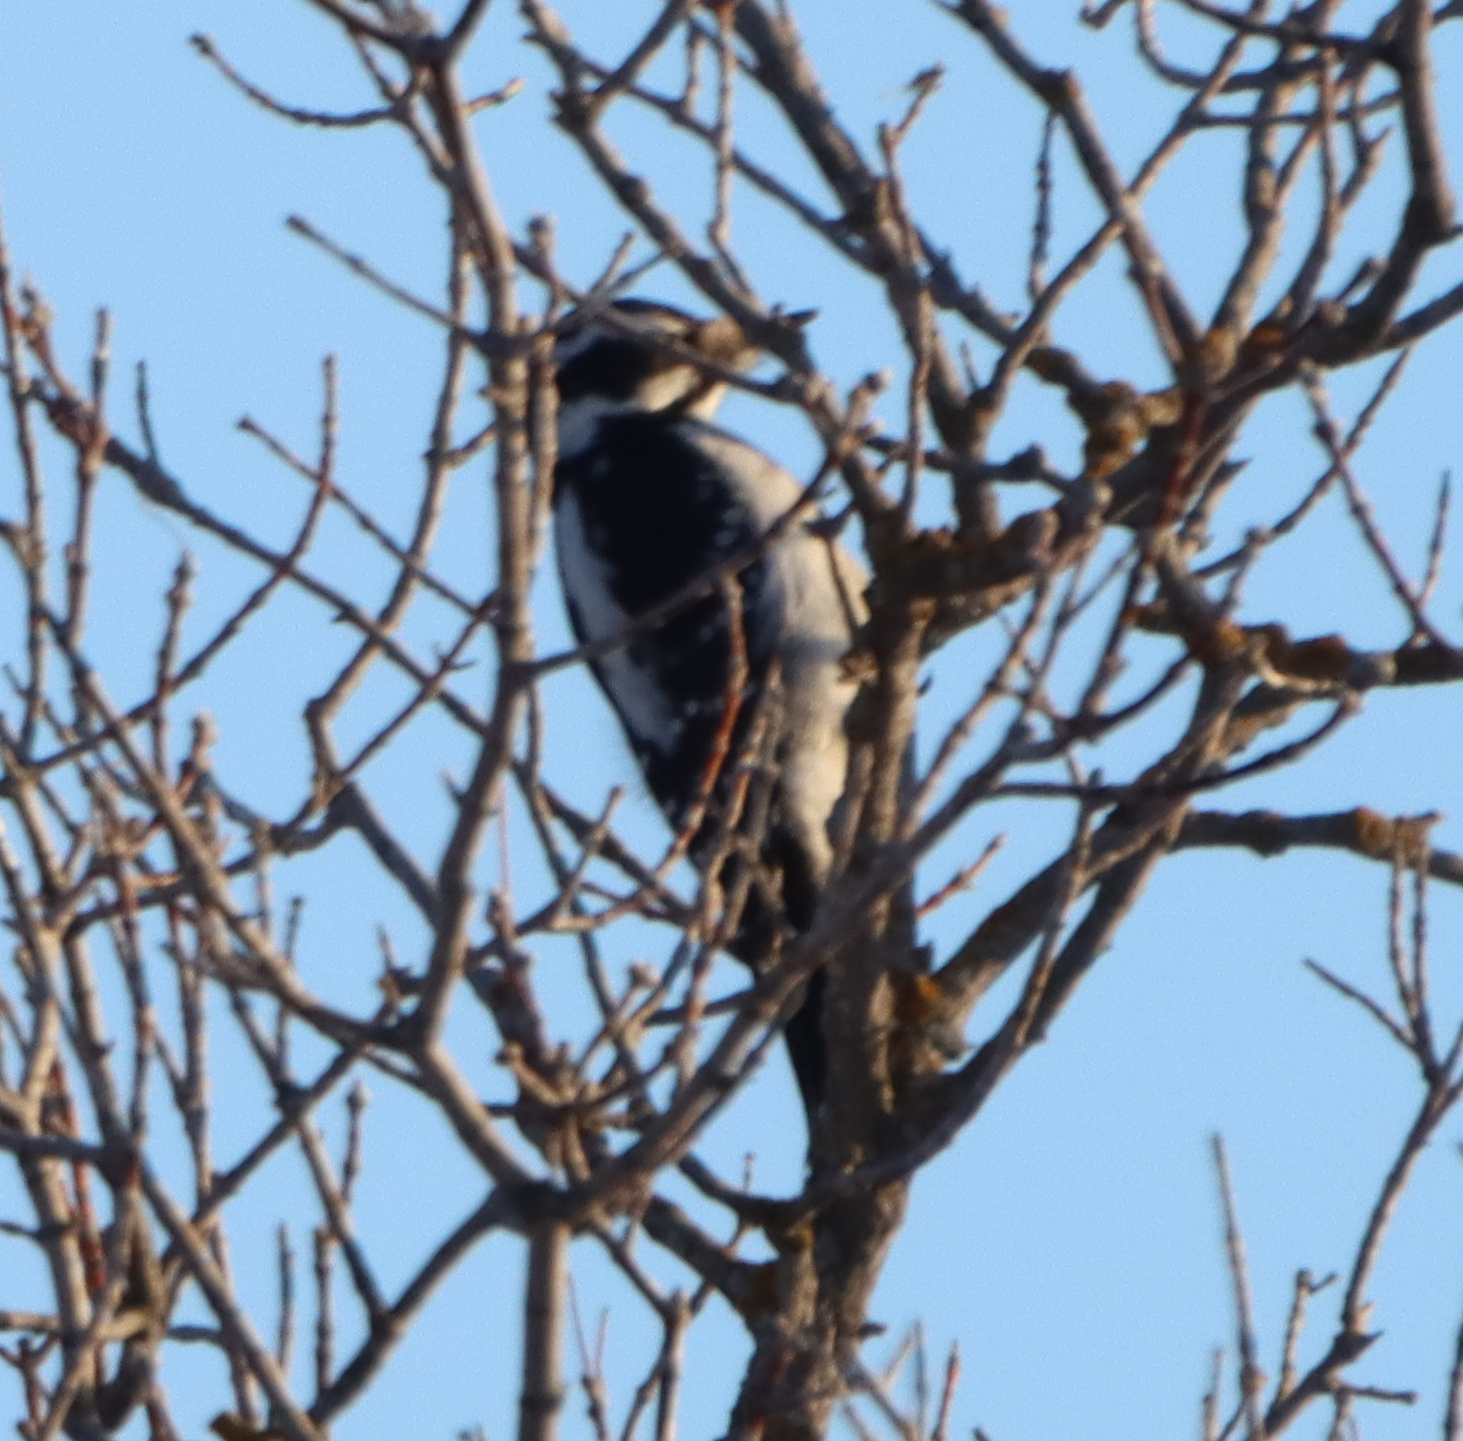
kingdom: Animalia
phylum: Chordata
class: Aves
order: Piciformes
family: Picidae
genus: Leuconotopicus
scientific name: Leuconotopicus villosus
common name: Hairy woodpecker
